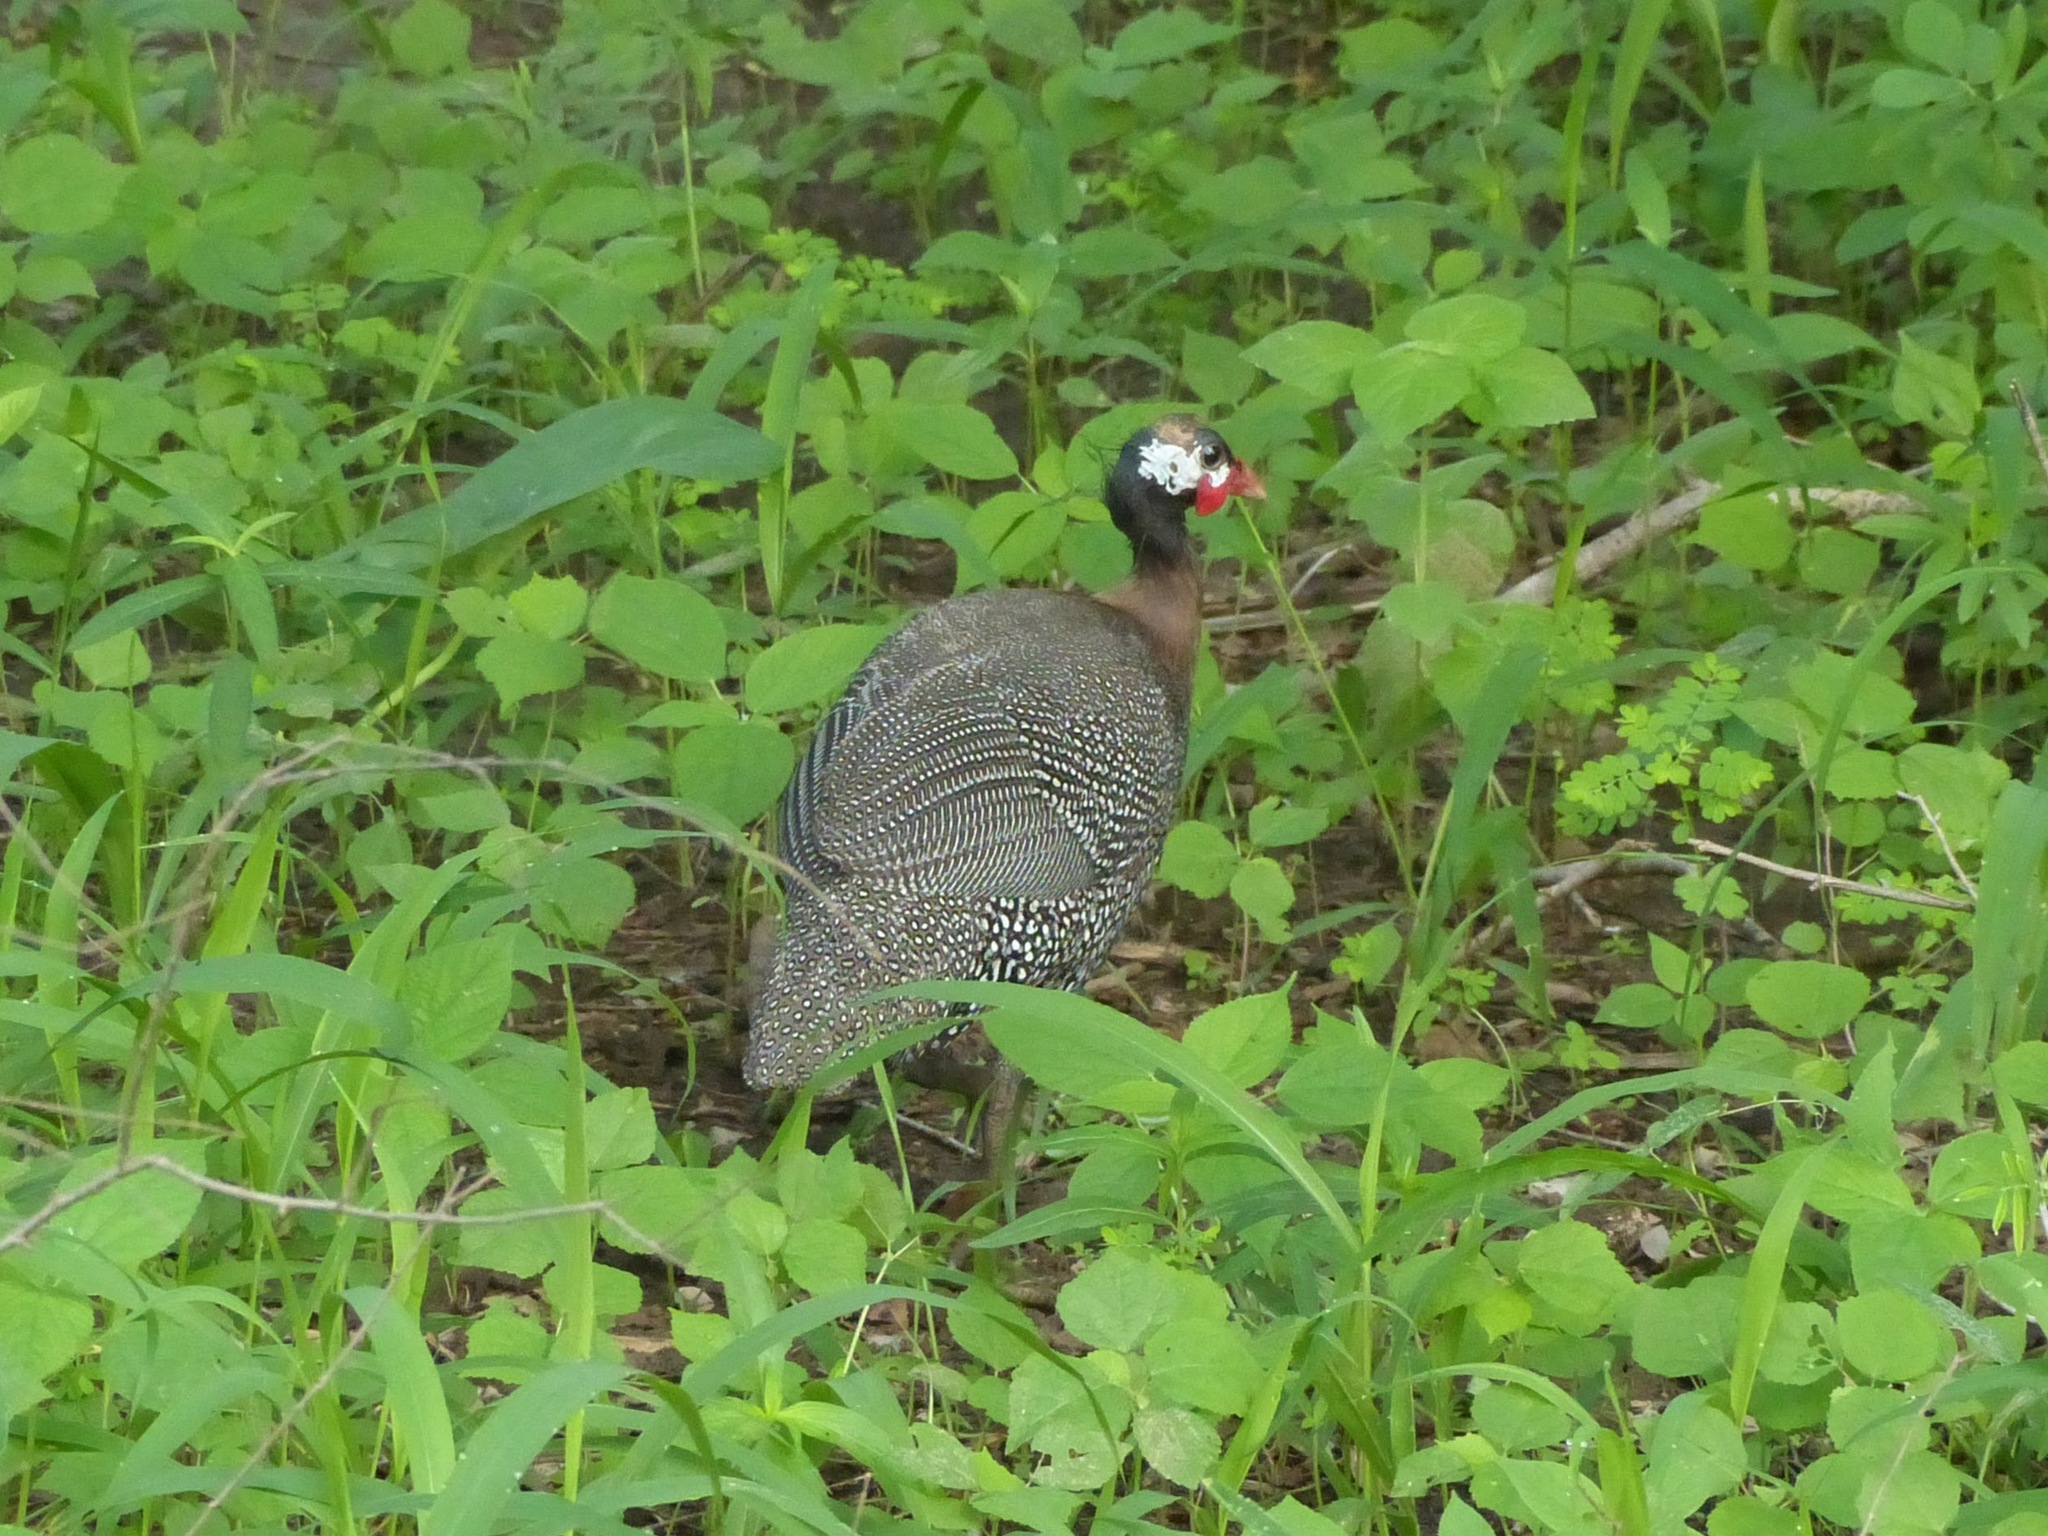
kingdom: Animalia
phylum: Chordata
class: Aves
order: Galliformes
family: Numididae
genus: Numida
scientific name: Numida meleagris
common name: Helmeted guineafowl
